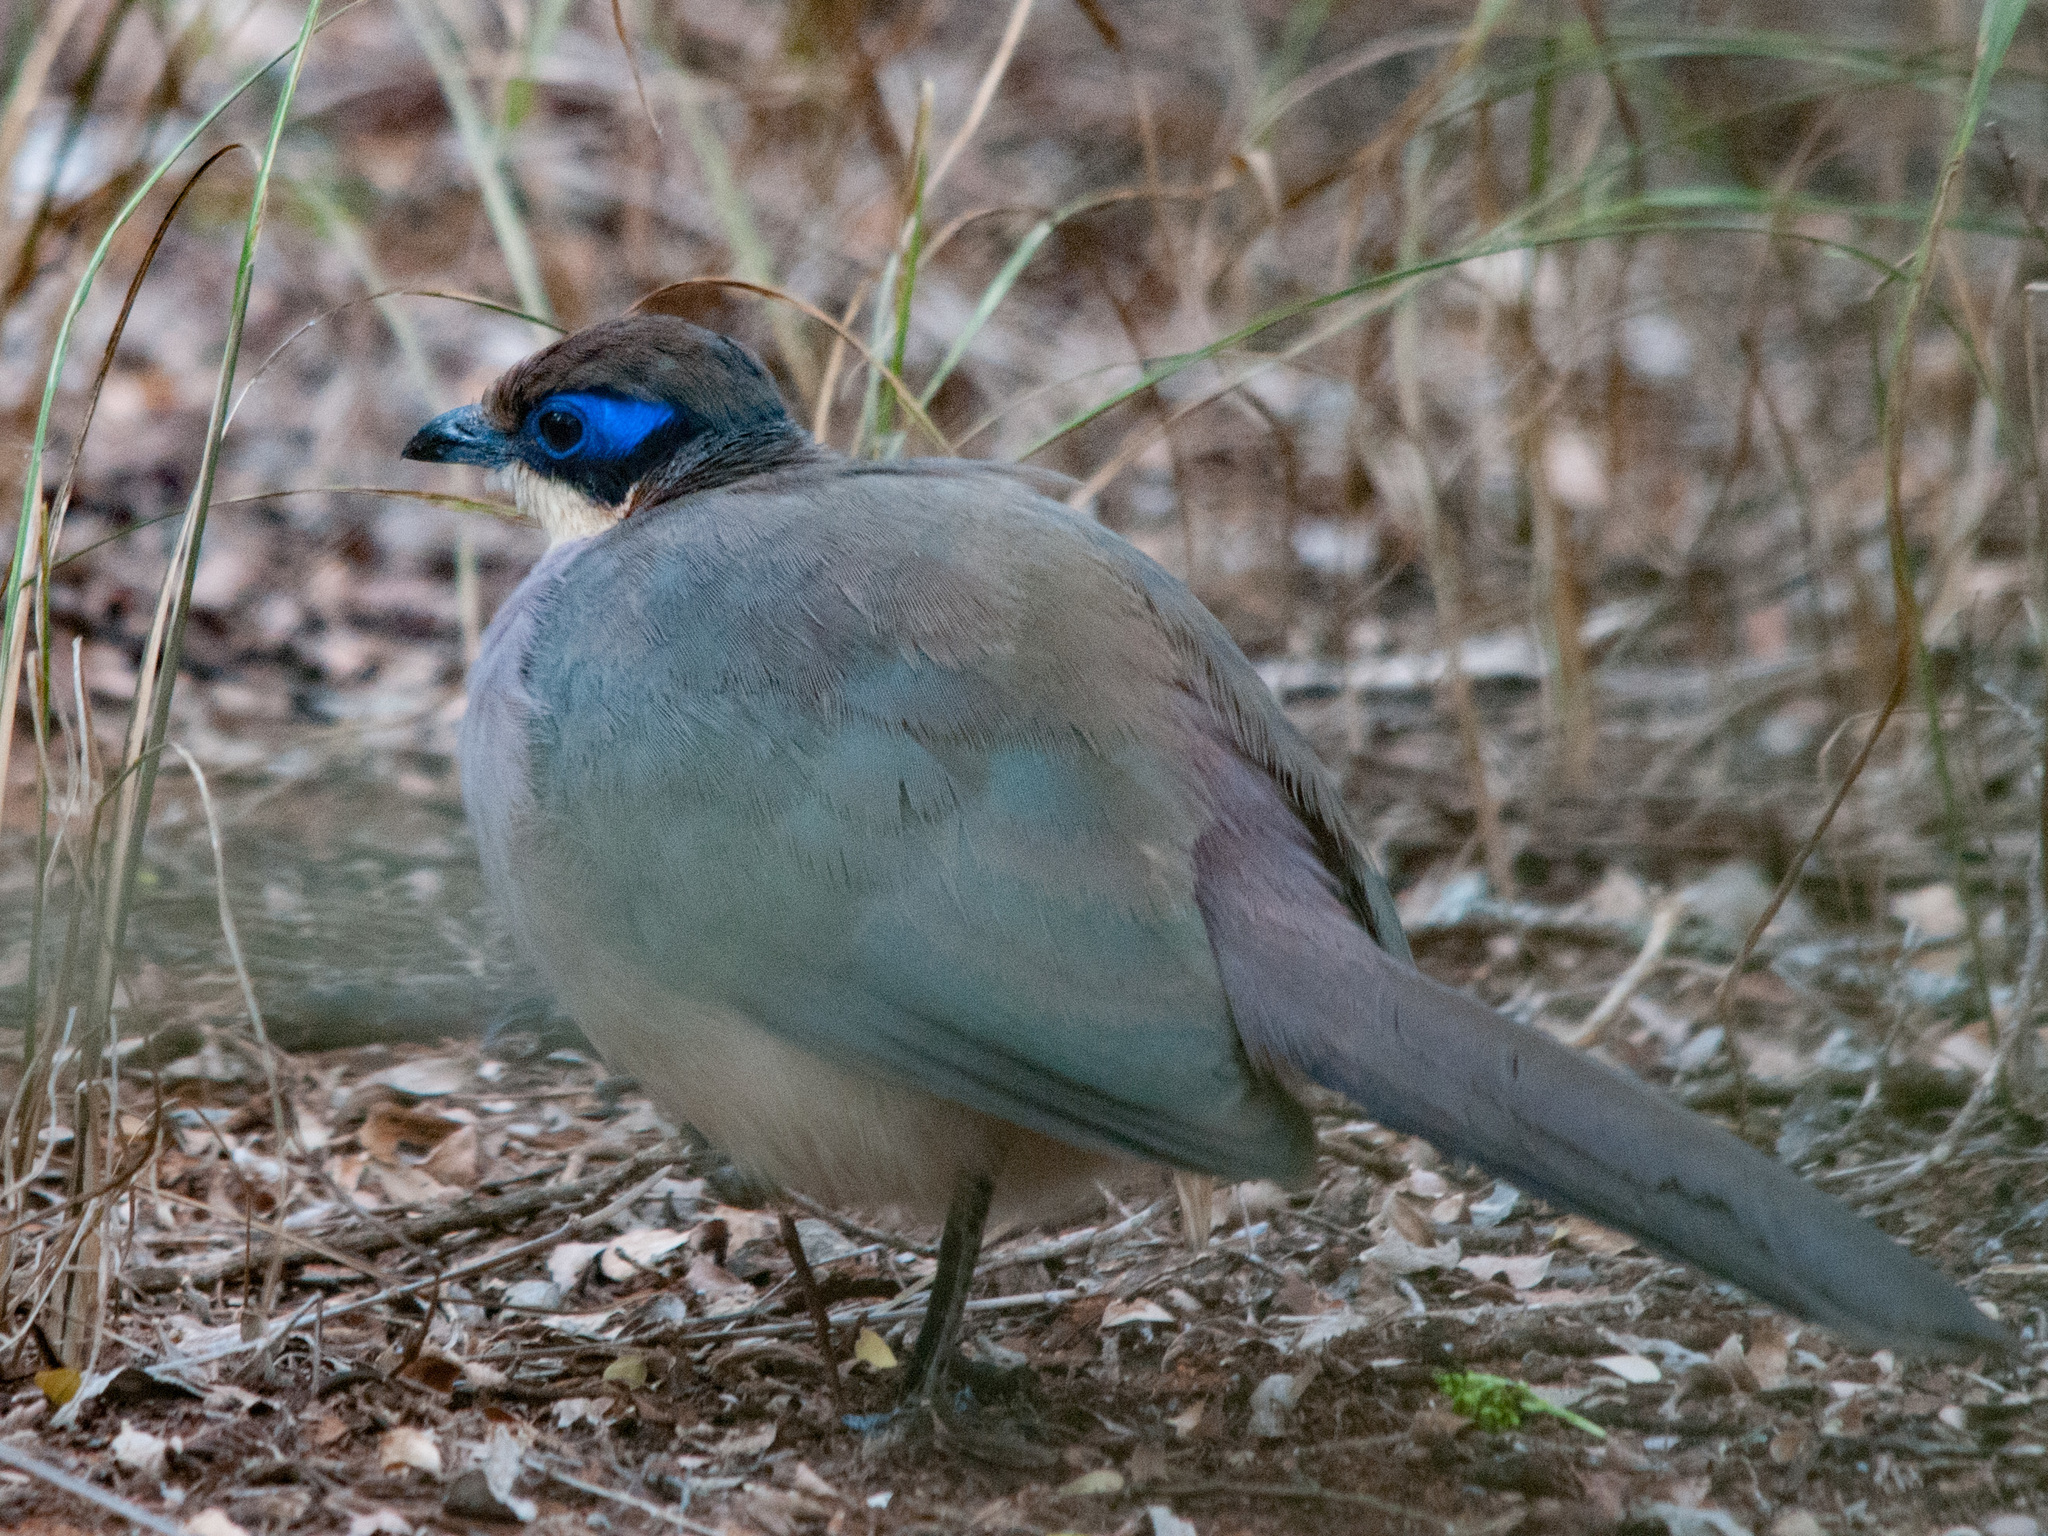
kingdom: Animalia
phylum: Chordata
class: Aves
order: Cuculiformes
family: Cuculidae
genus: Coua
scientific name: Coua ruficeps
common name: Red-capped coua
